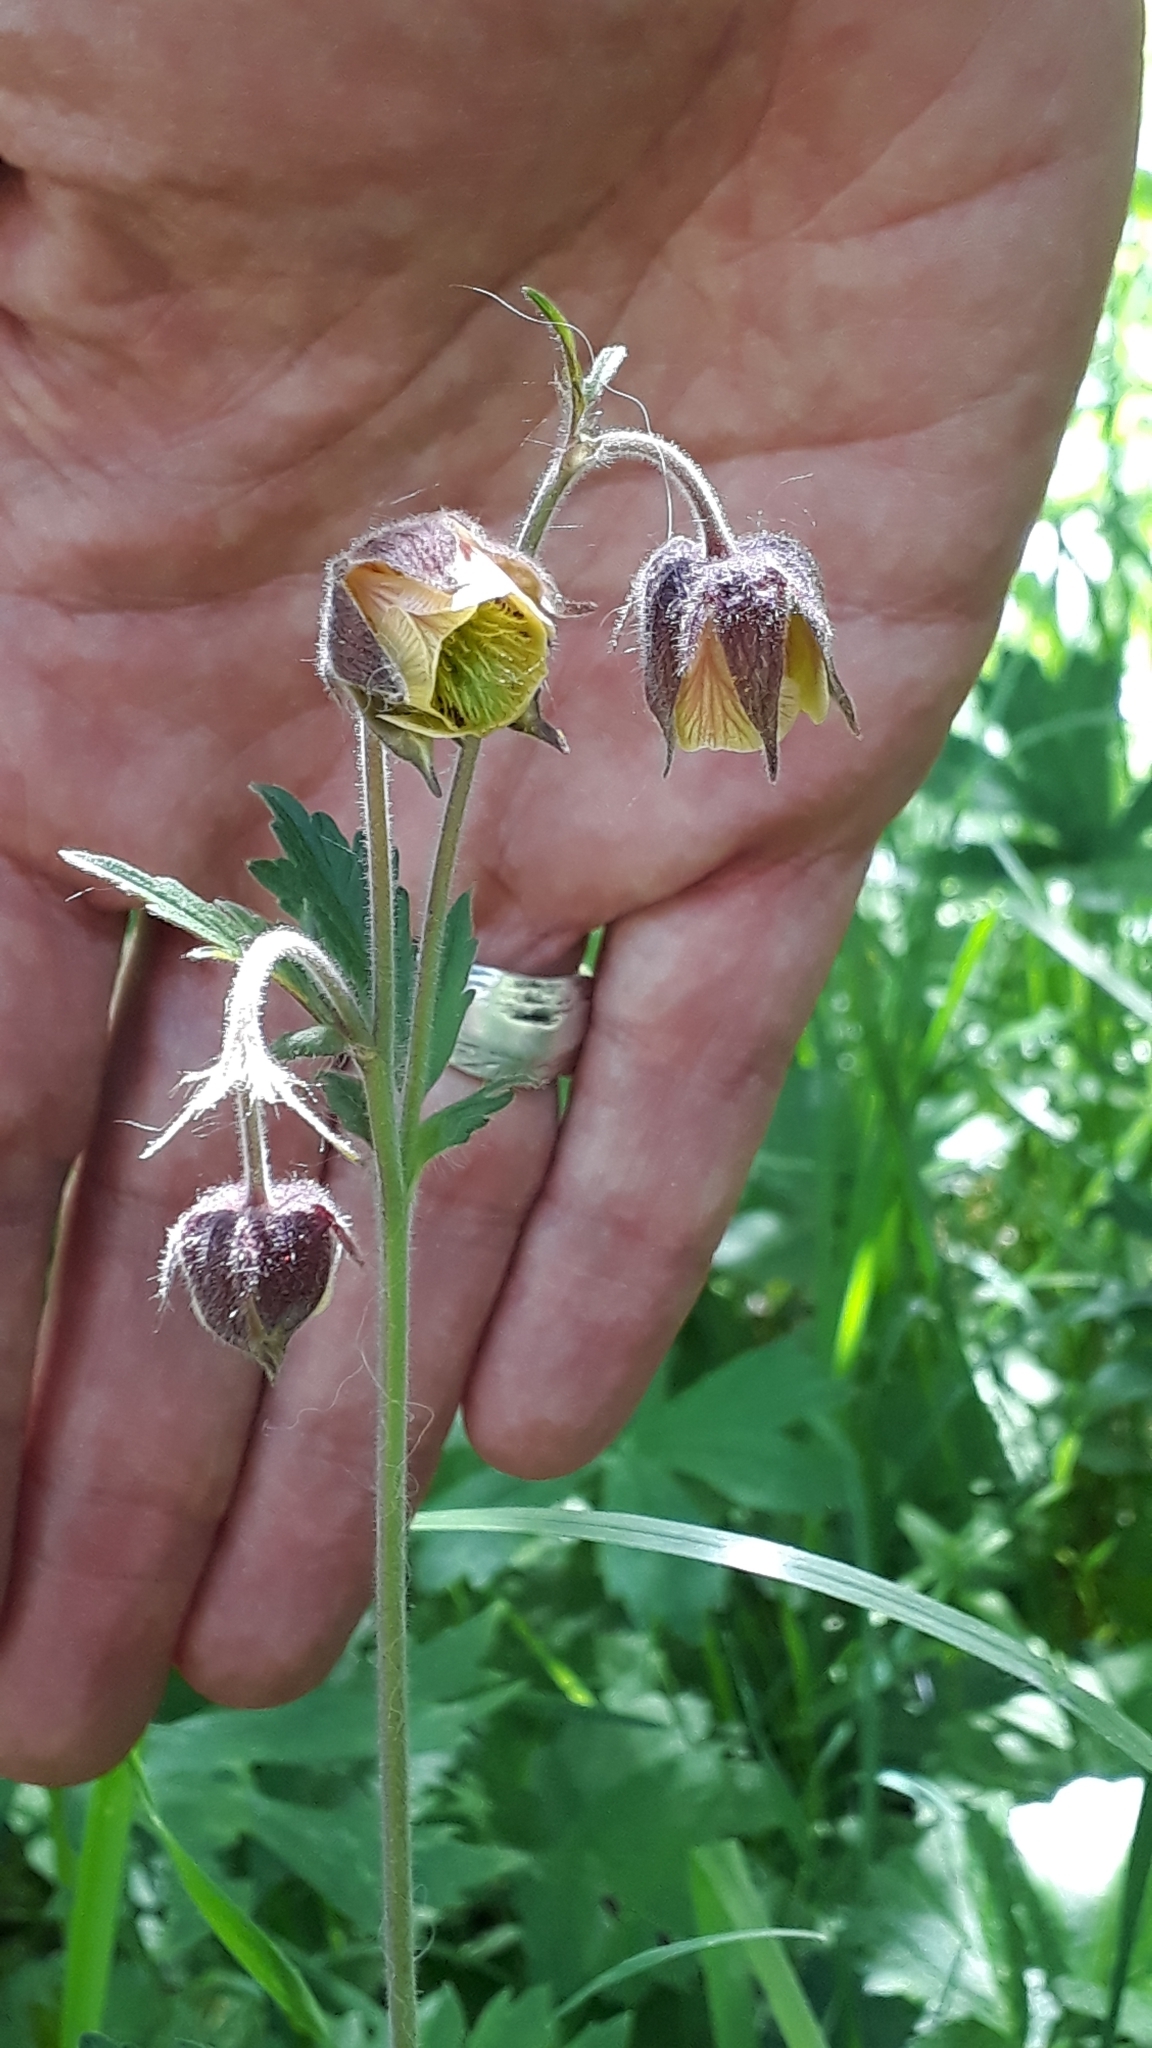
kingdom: Plantae
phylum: Tracheophyta
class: Magnoliopsida
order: Rosales
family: Rosaceae
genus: Geum
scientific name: Geum rivale
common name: Water avens
